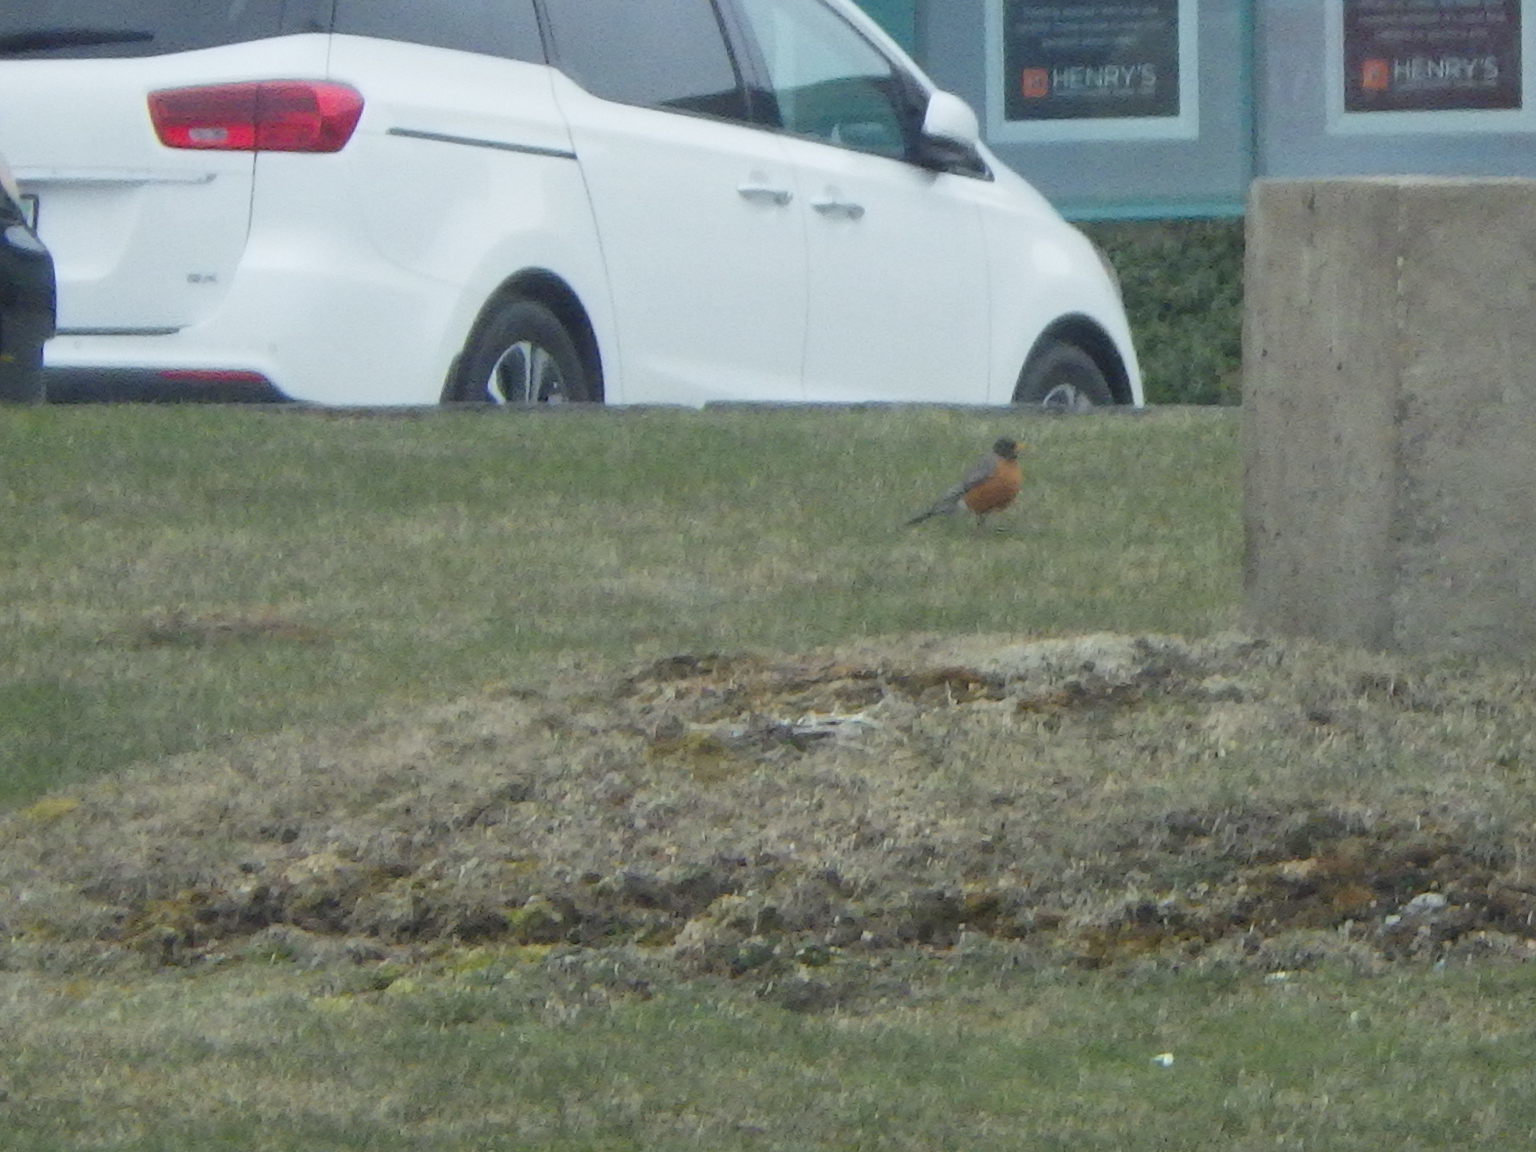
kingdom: Animalia
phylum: Chordata
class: Aves
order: Passeriformes
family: Turdidae
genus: Turdus
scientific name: Turdus migratorius
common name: American robin
